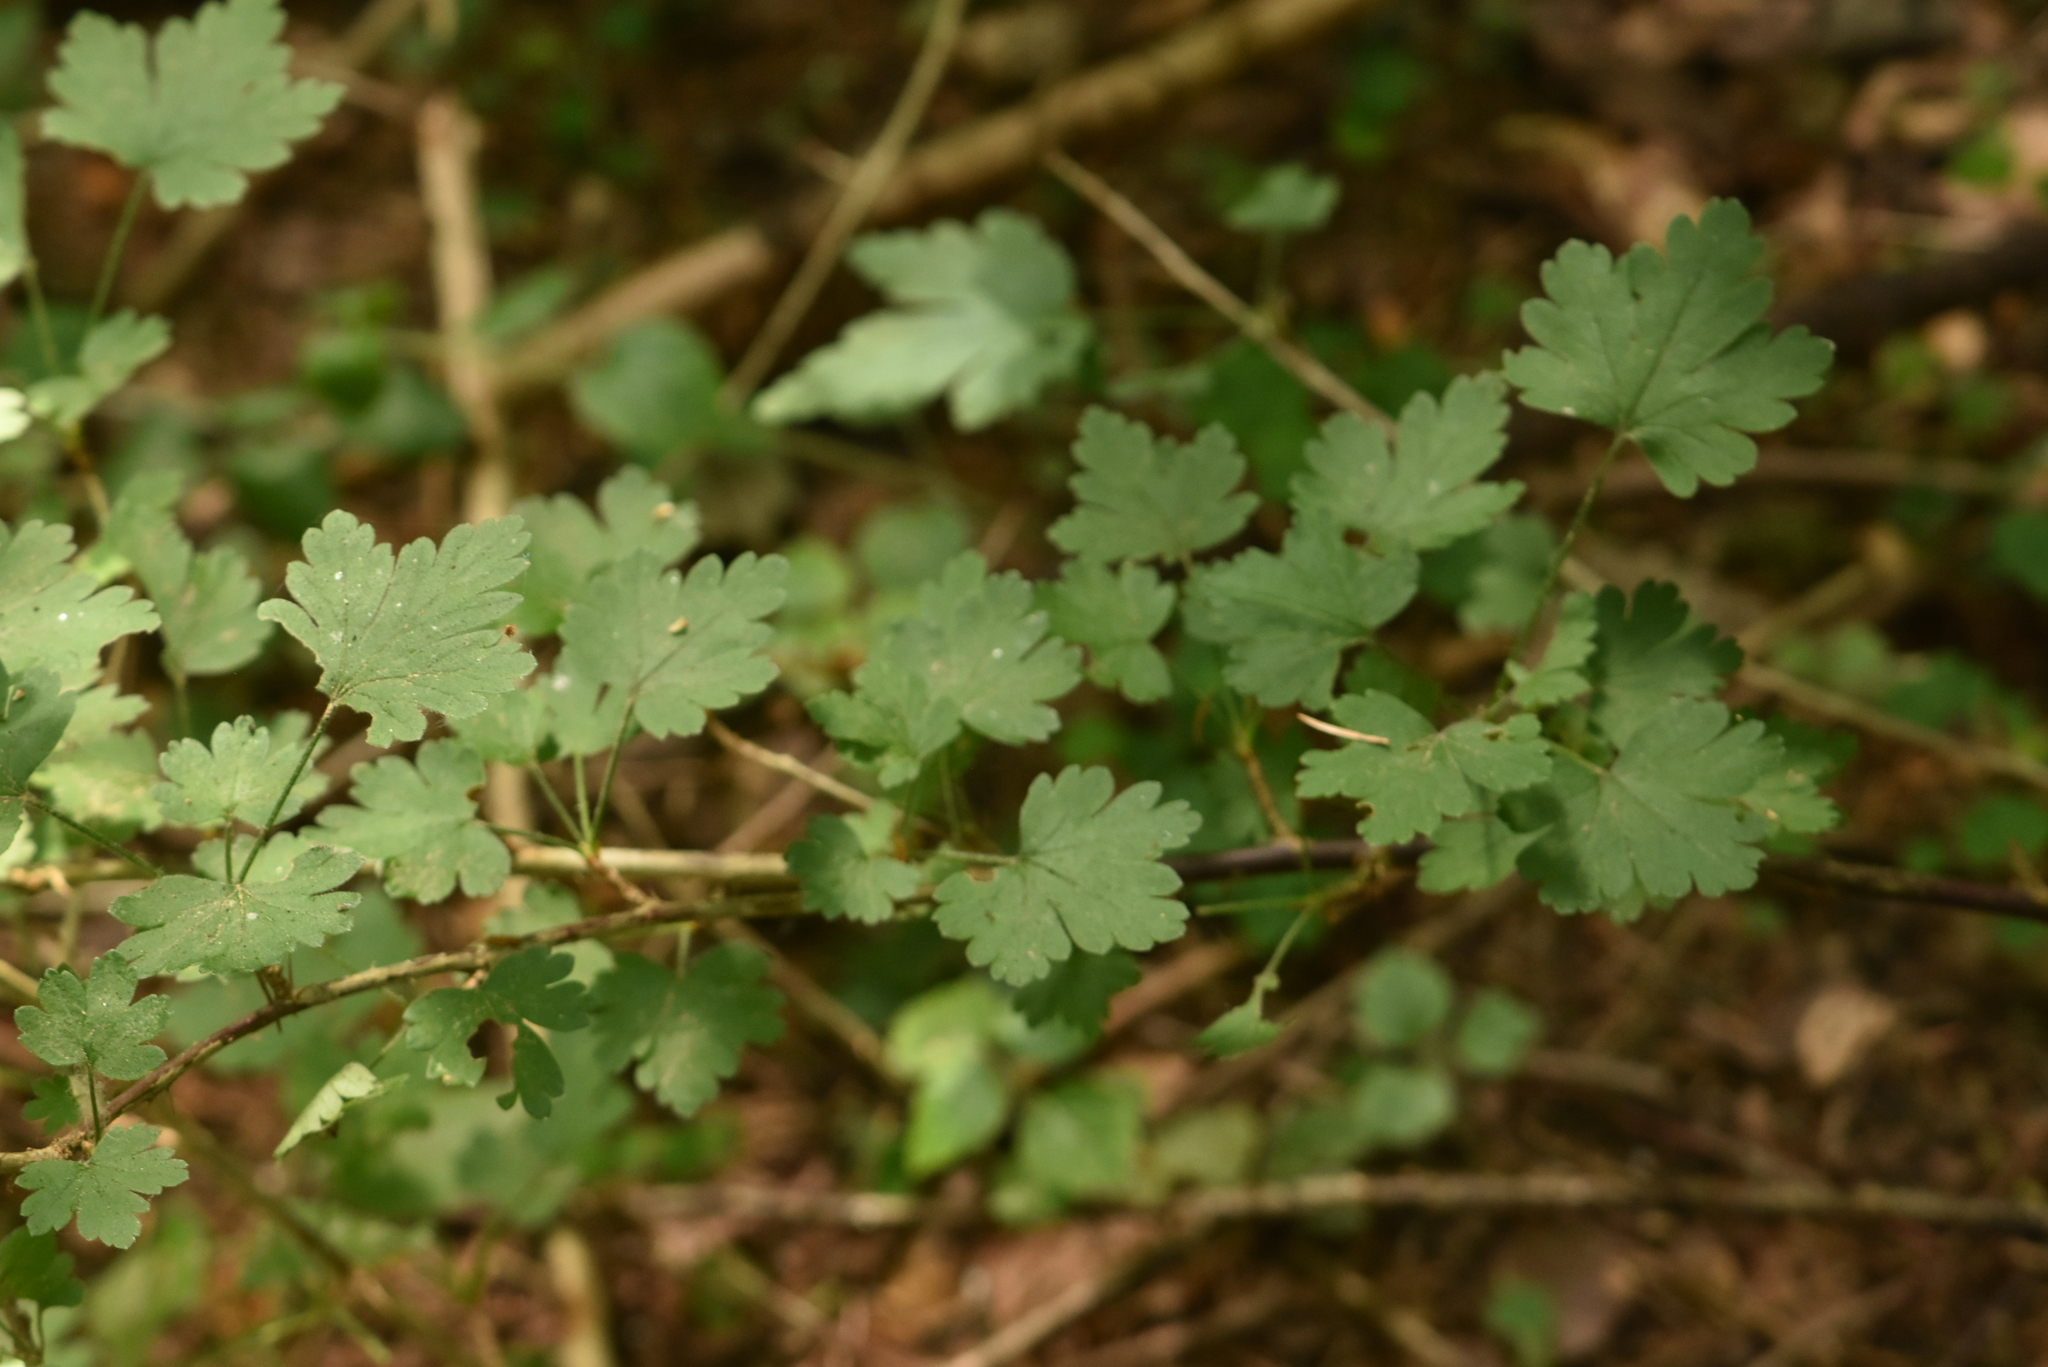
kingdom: Plantae
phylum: Tracheophyta
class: Magnoliopsida
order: Saxifragales
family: Grossulariaceae
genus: Ribes
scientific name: Ribes uva-crispa
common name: Gooseberry
